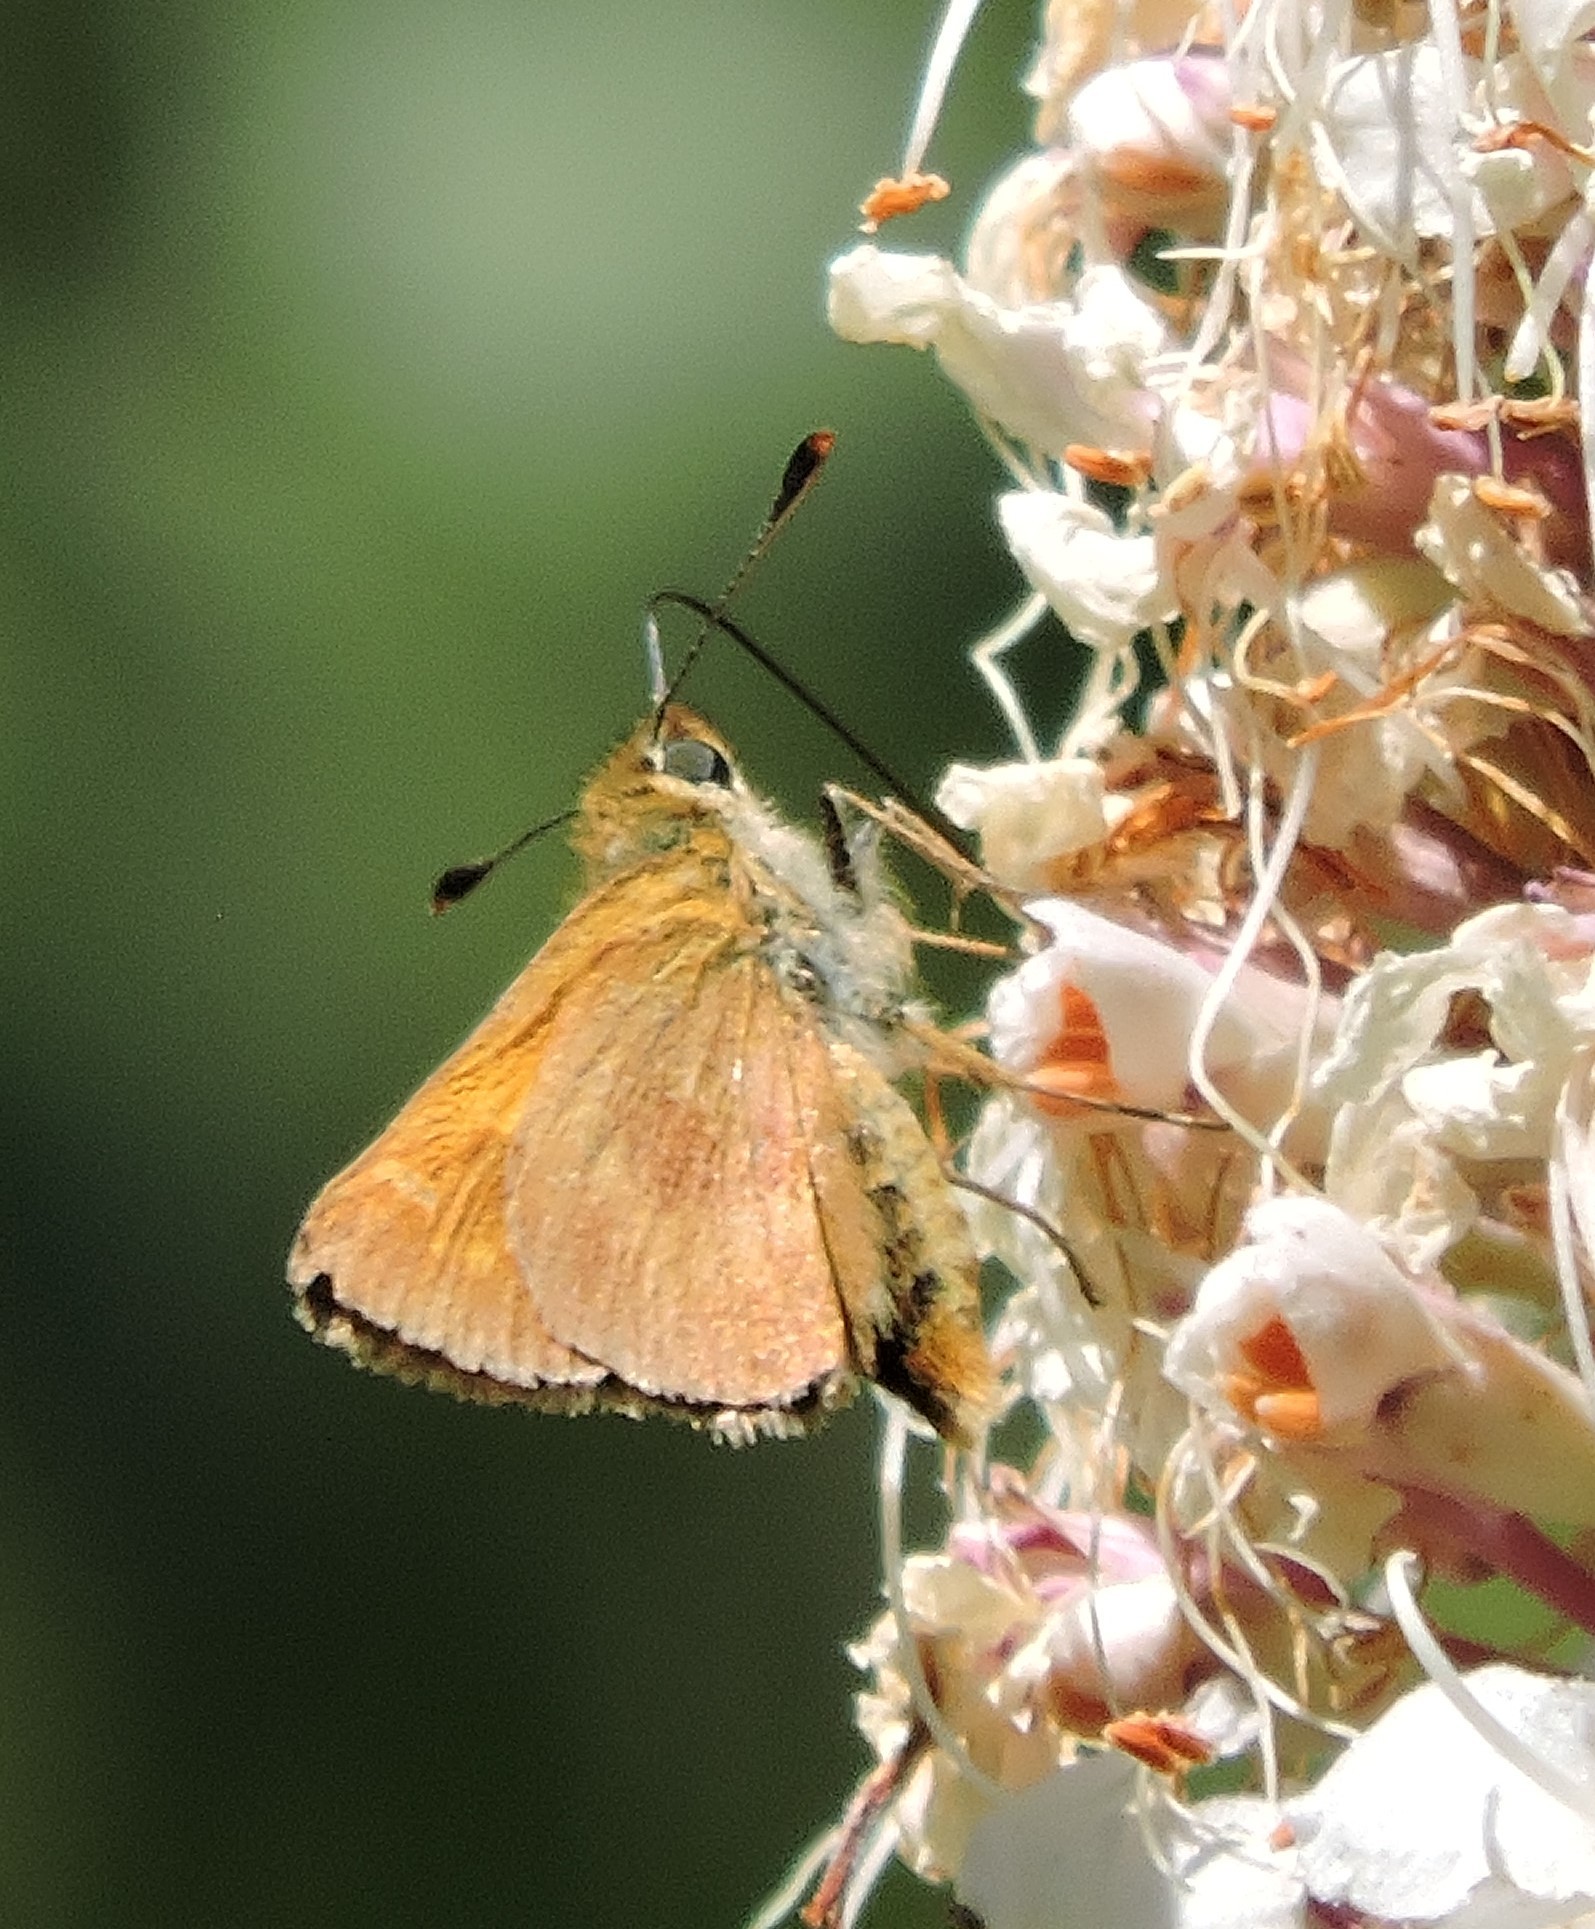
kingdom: Animalia
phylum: Arthropoda
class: Insecta
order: Lepidoptera
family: Hesperiidae
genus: Lon
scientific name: Lon melane
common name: Umber skipper
